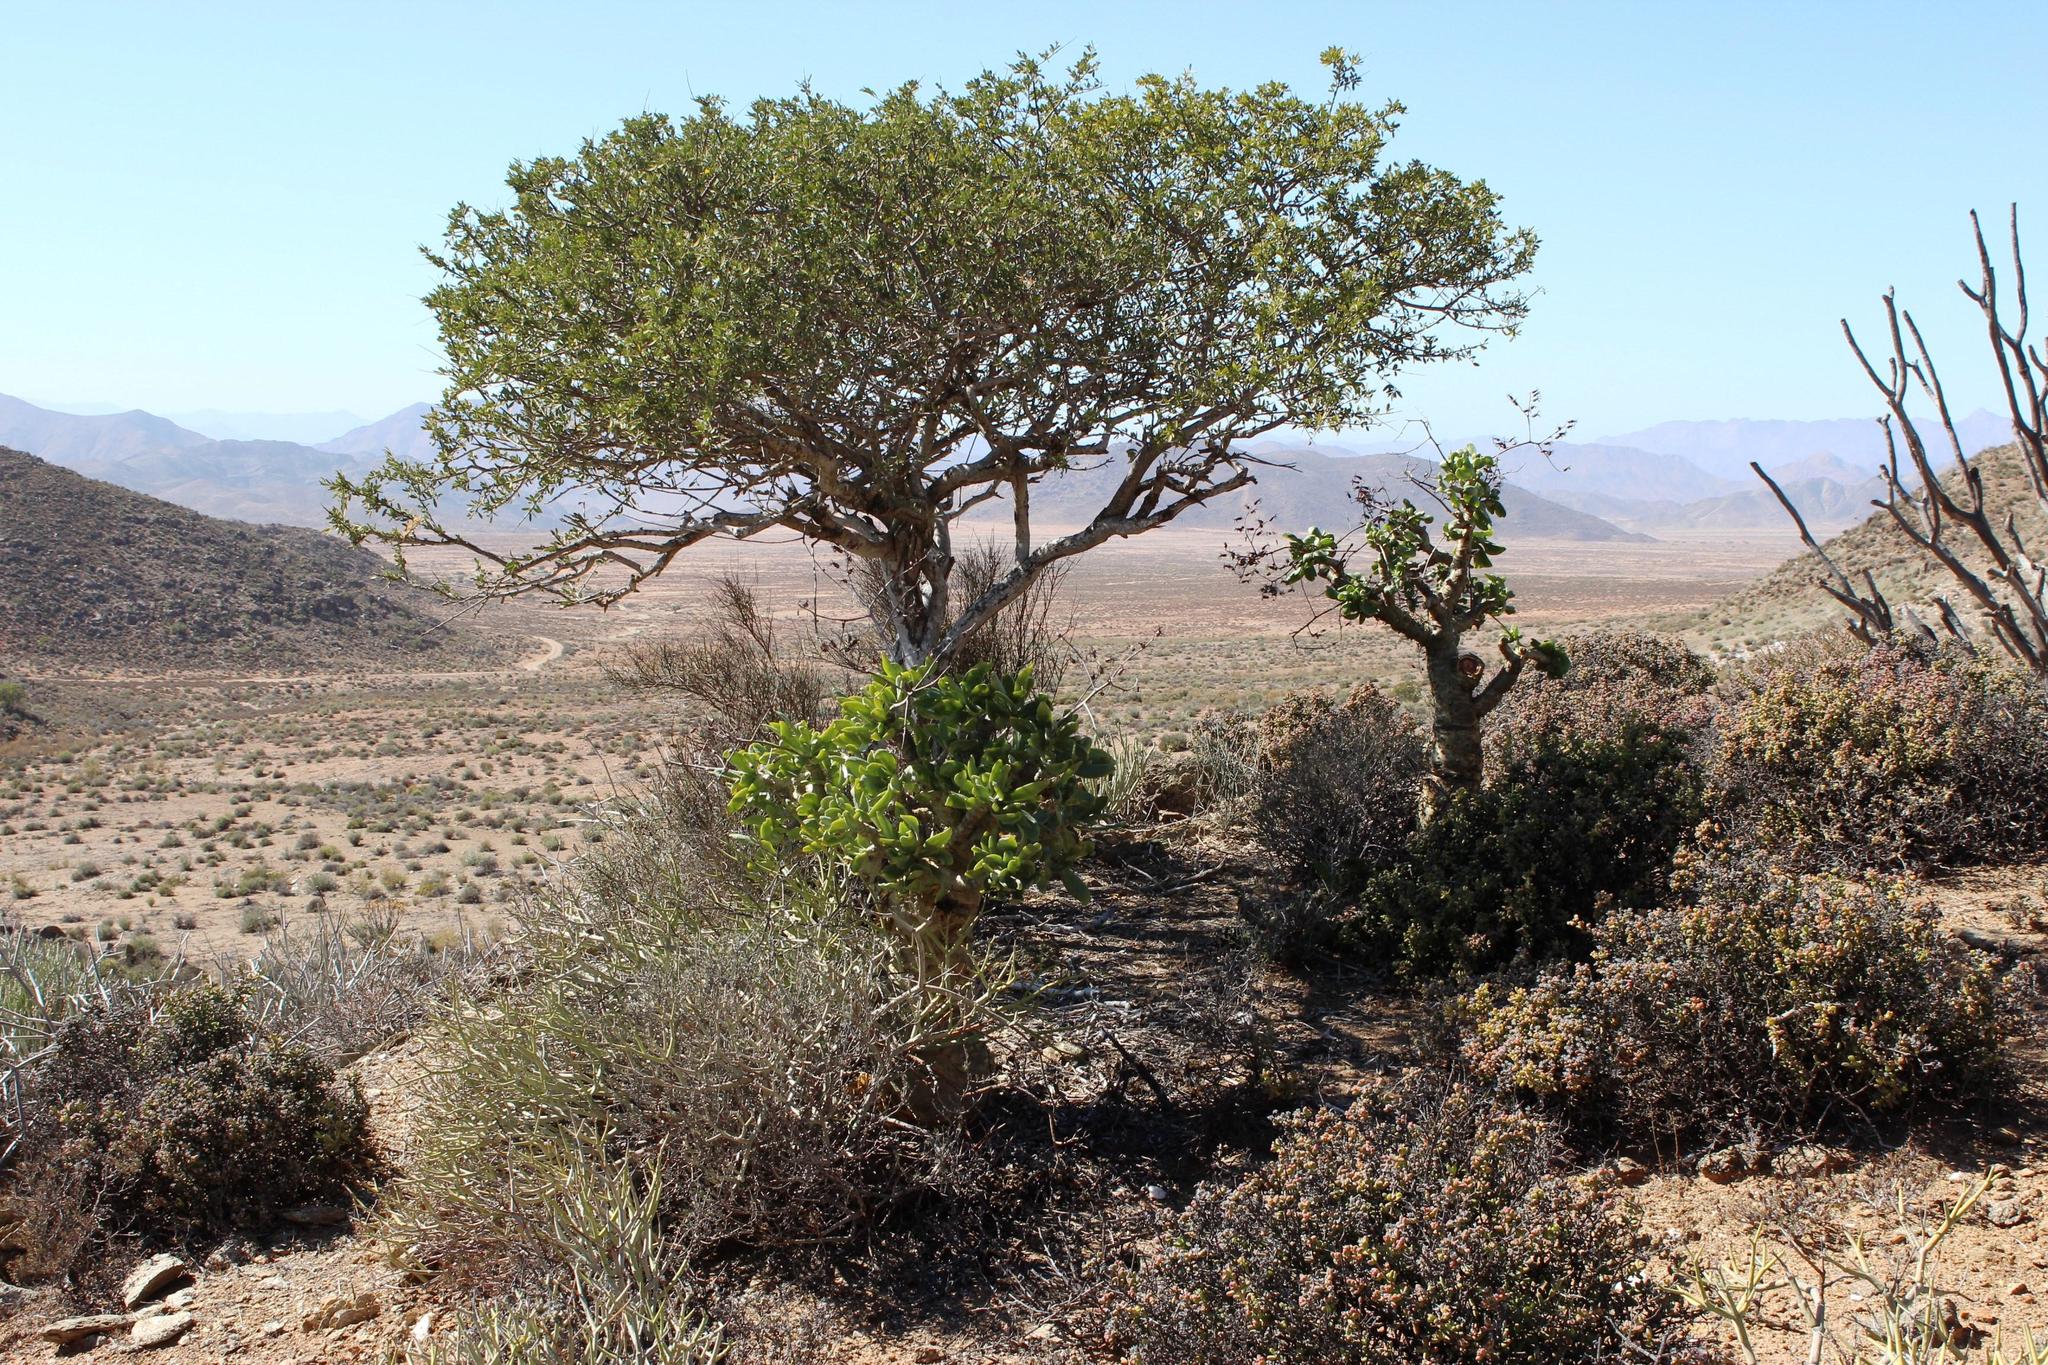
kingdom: Plantae
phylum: Tracheophyta
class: Magnoliopsida
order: Brassicales
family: Capparaceae
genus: Boscia
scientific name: Boscia albitrunca
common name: Caper bush
